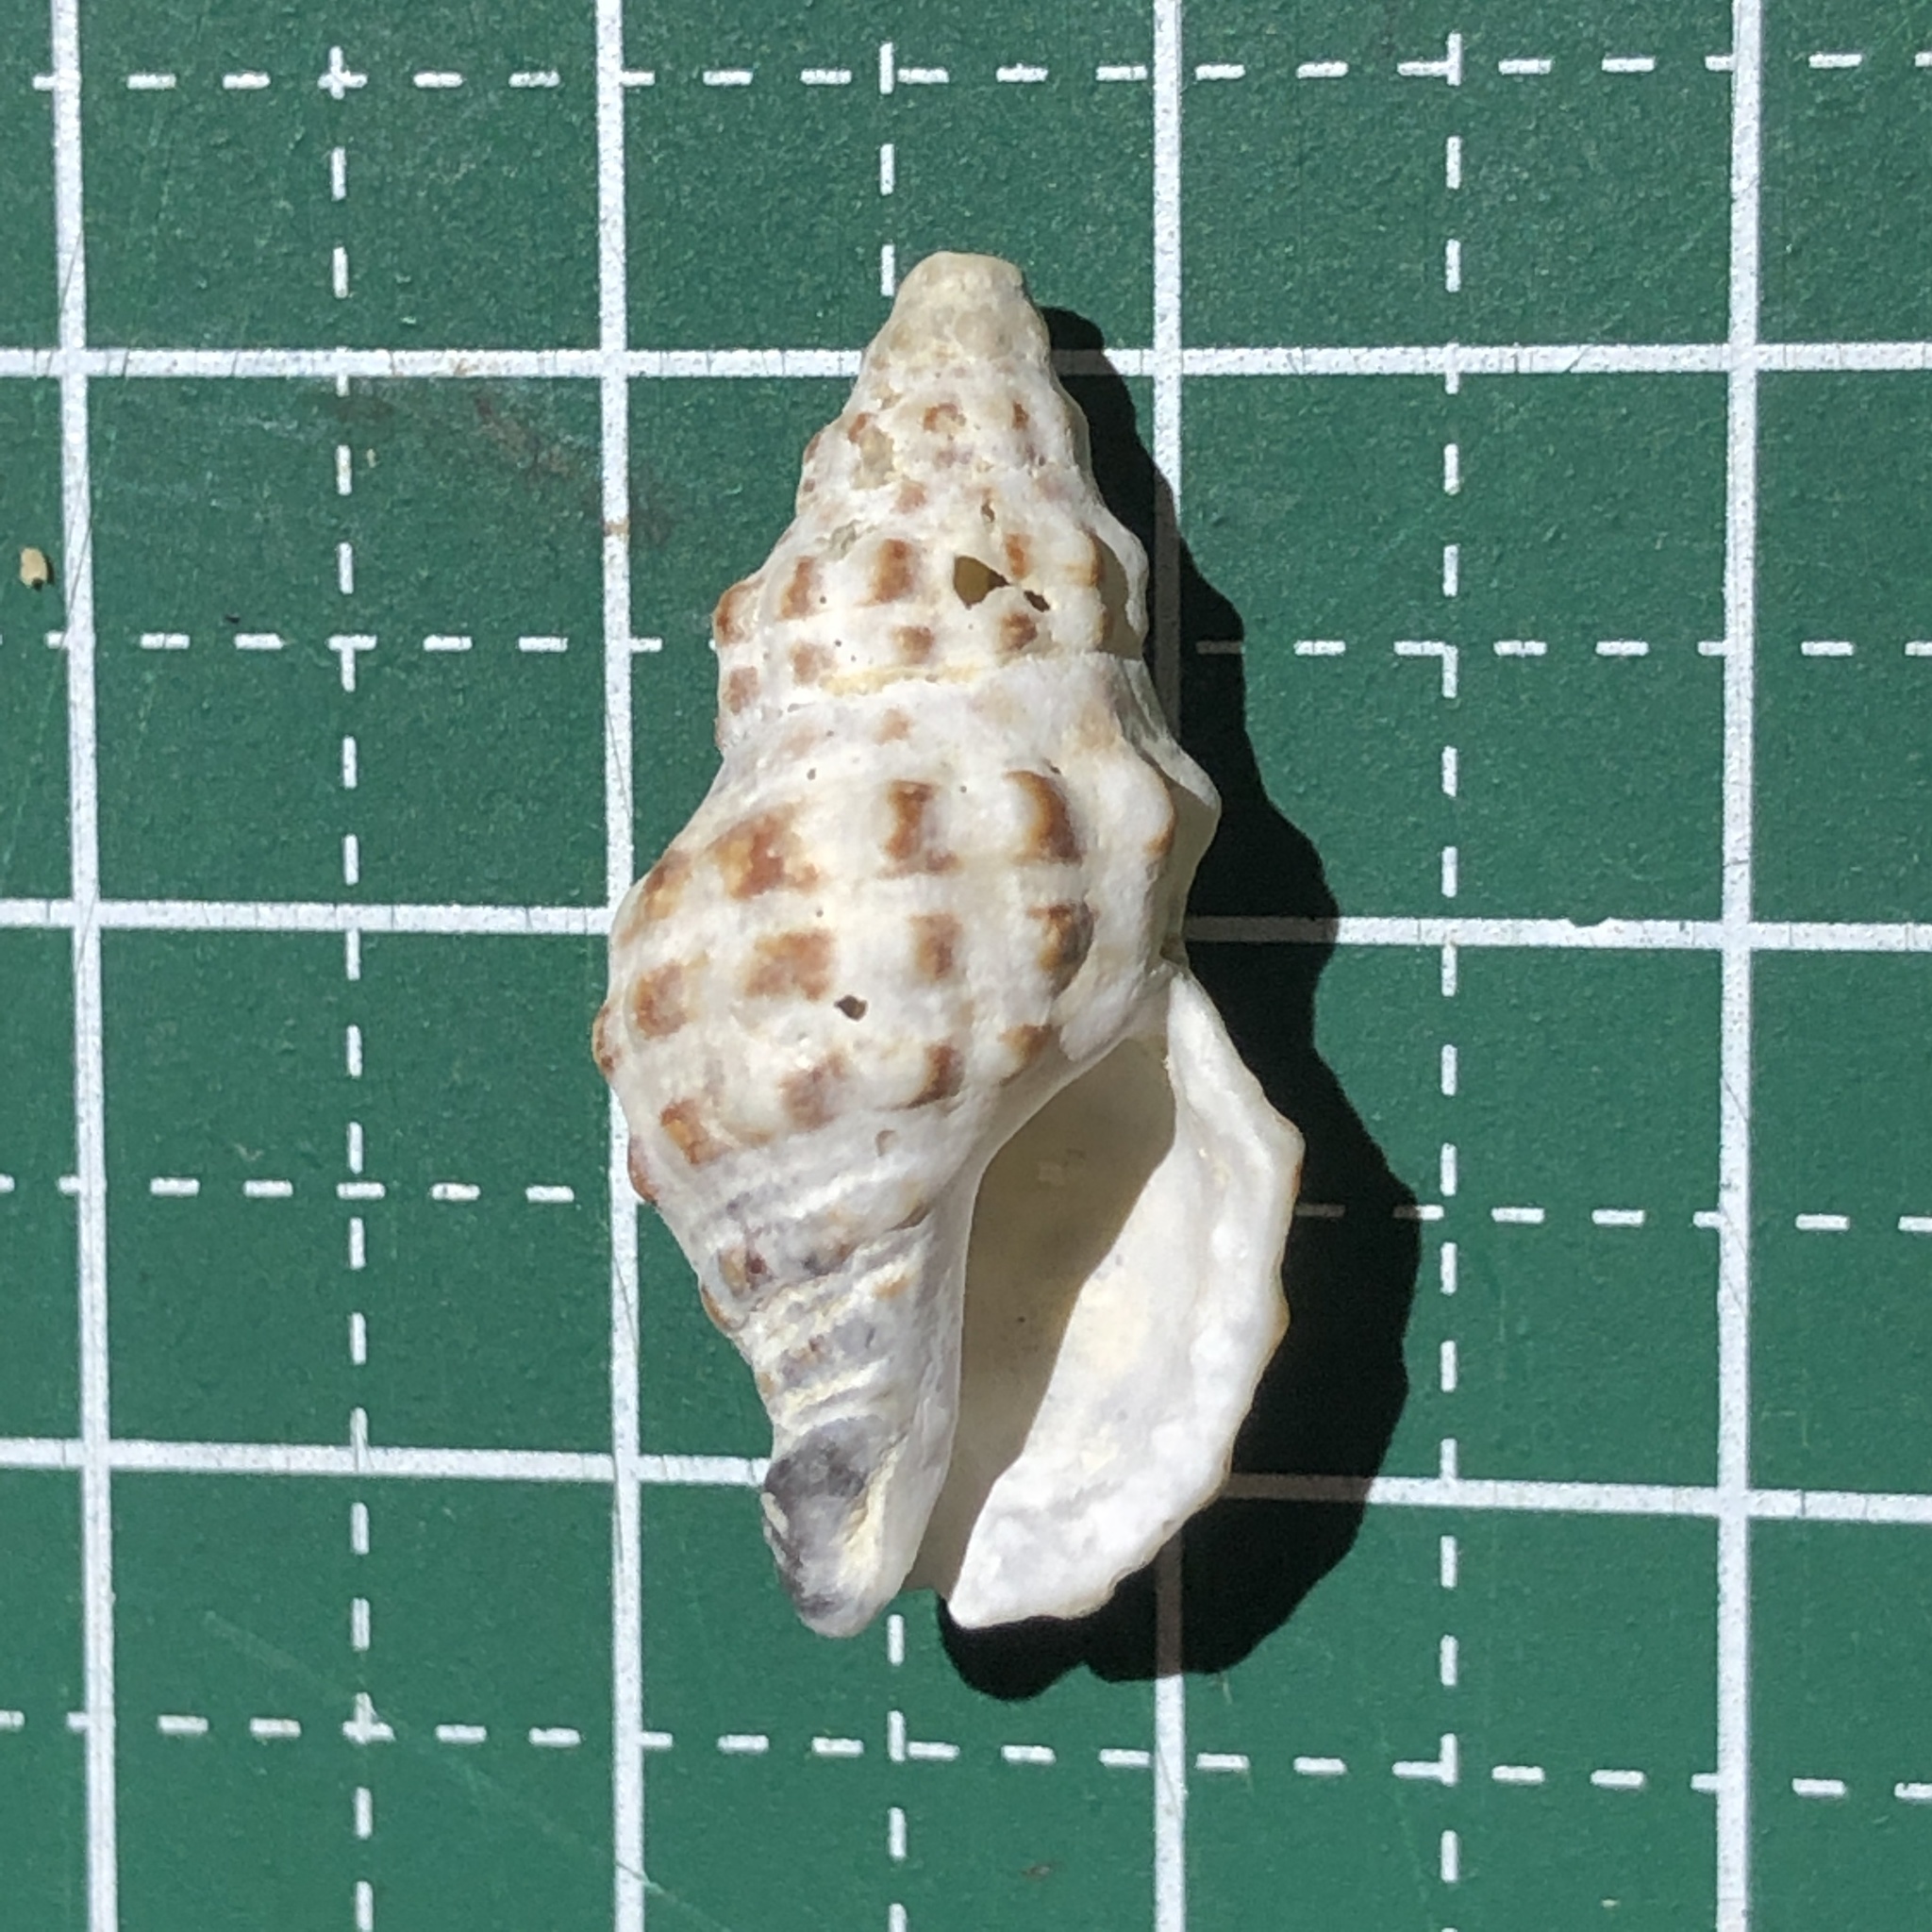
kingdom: Animalia
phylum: Mollusca
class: Gastropoda
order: Neogastropoda
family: Muricidae
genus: Drupella
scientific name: Drupella rugosa
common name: Harmonious drupe
